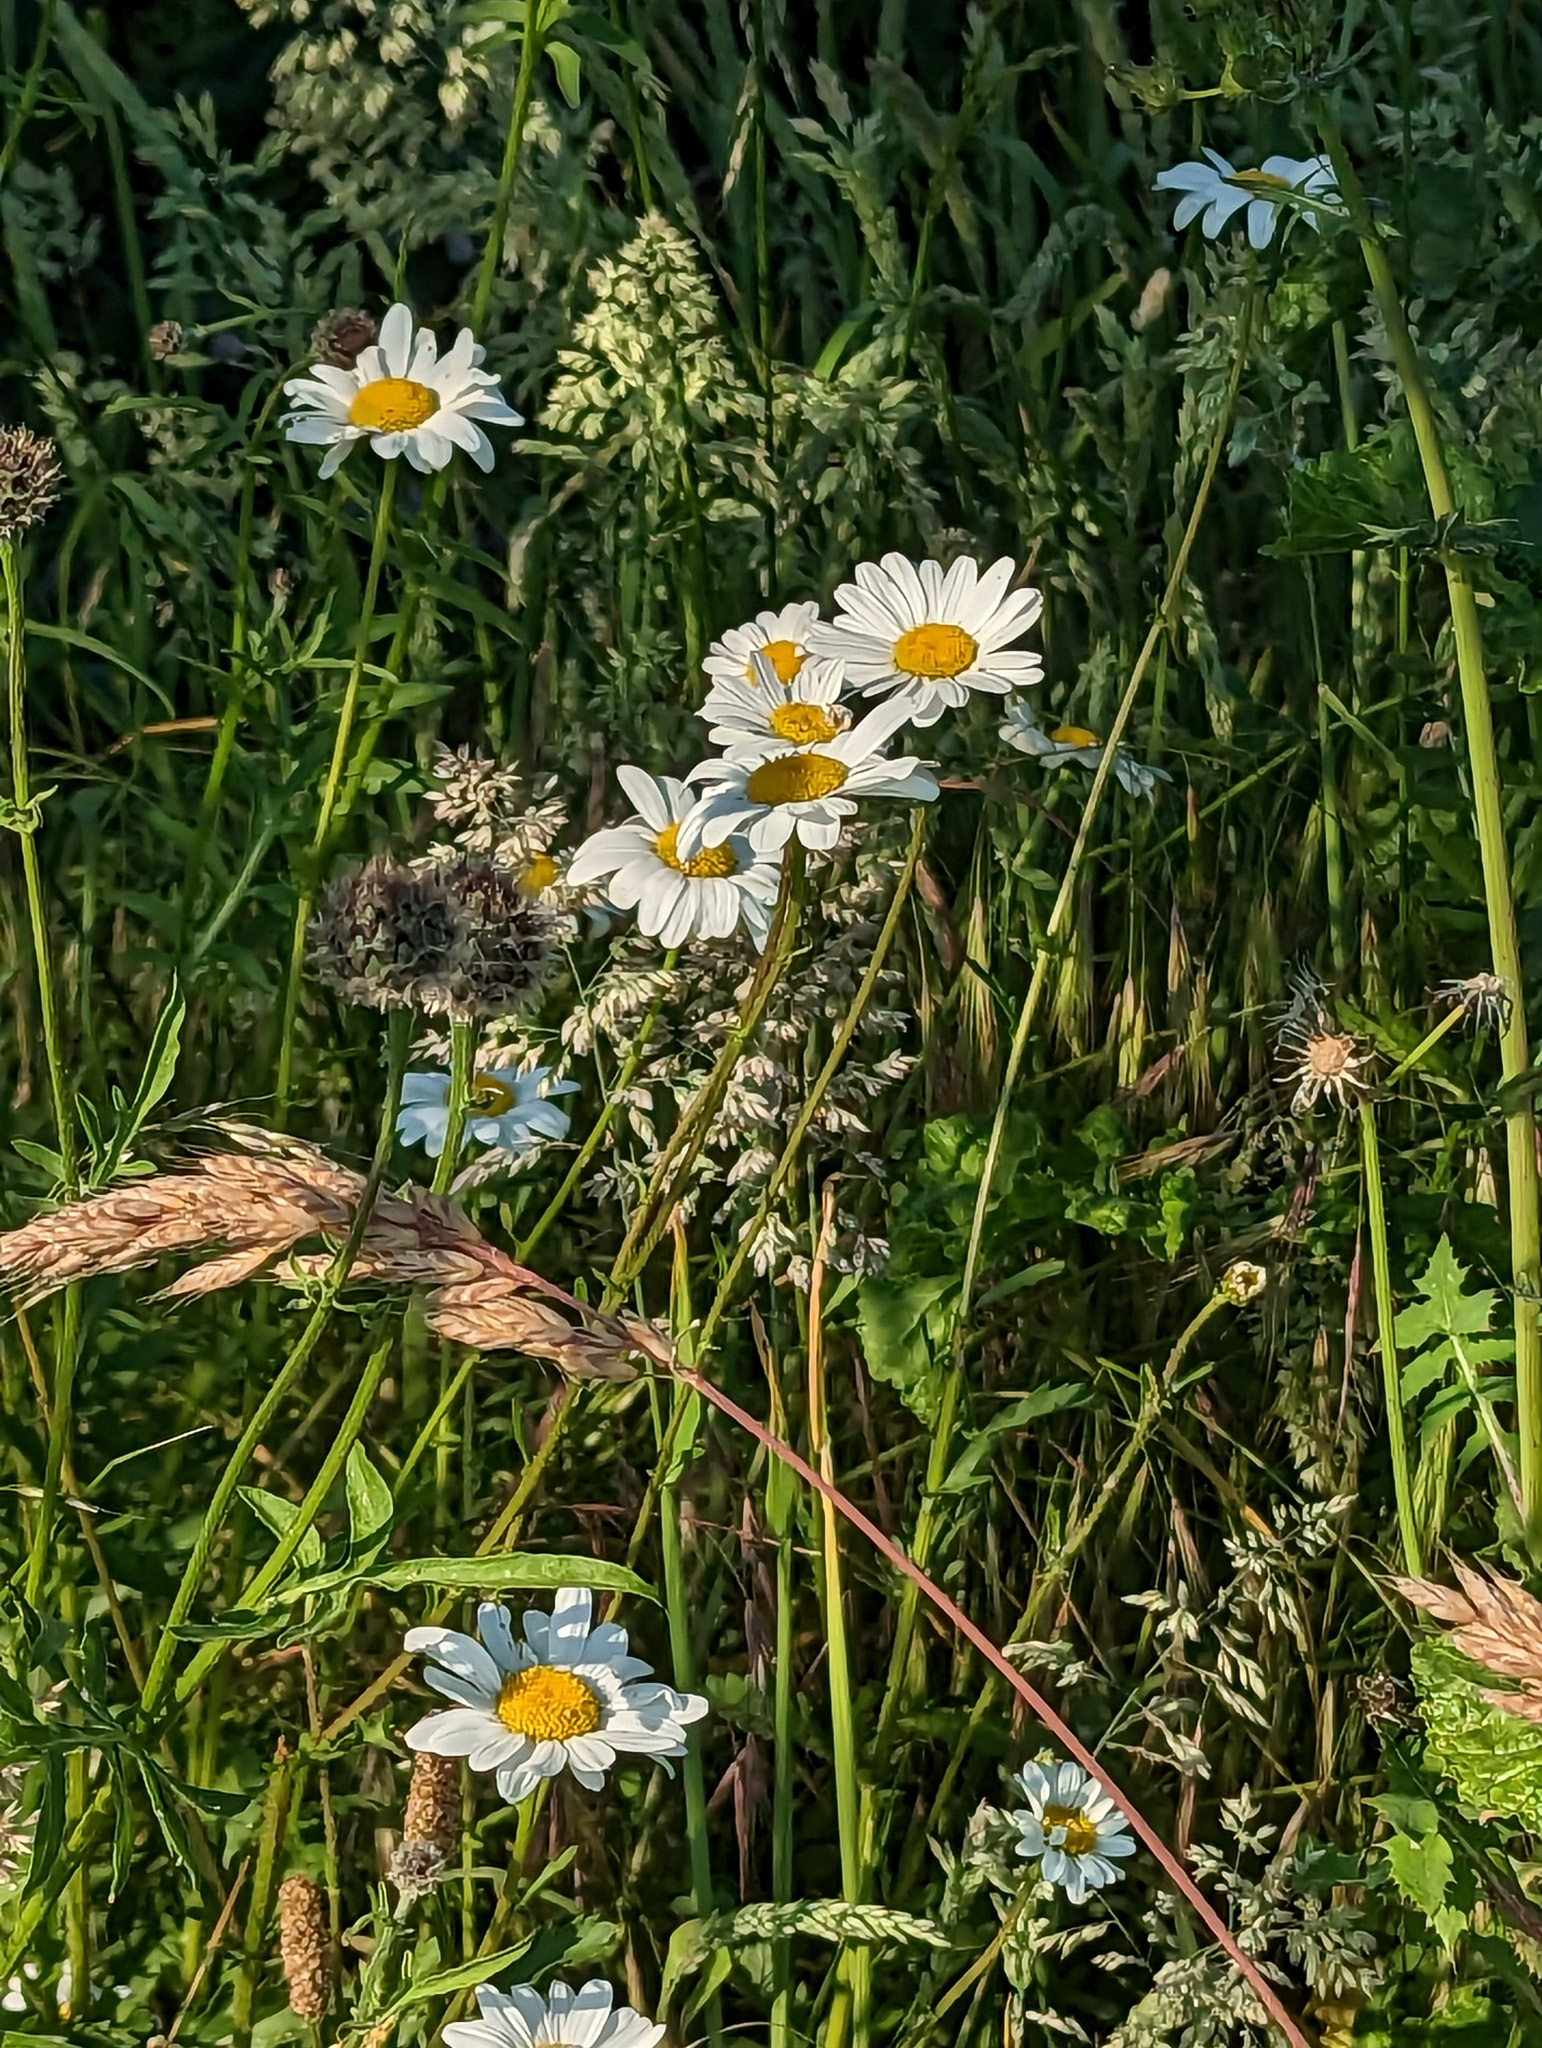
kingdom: Plantae
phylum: Tracheophyta
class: Magnoliopsida
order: Asterales
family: Asteraceae
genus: Leucanthemum
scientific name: Leucanthemum vulgare
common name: Oxeye daisy
